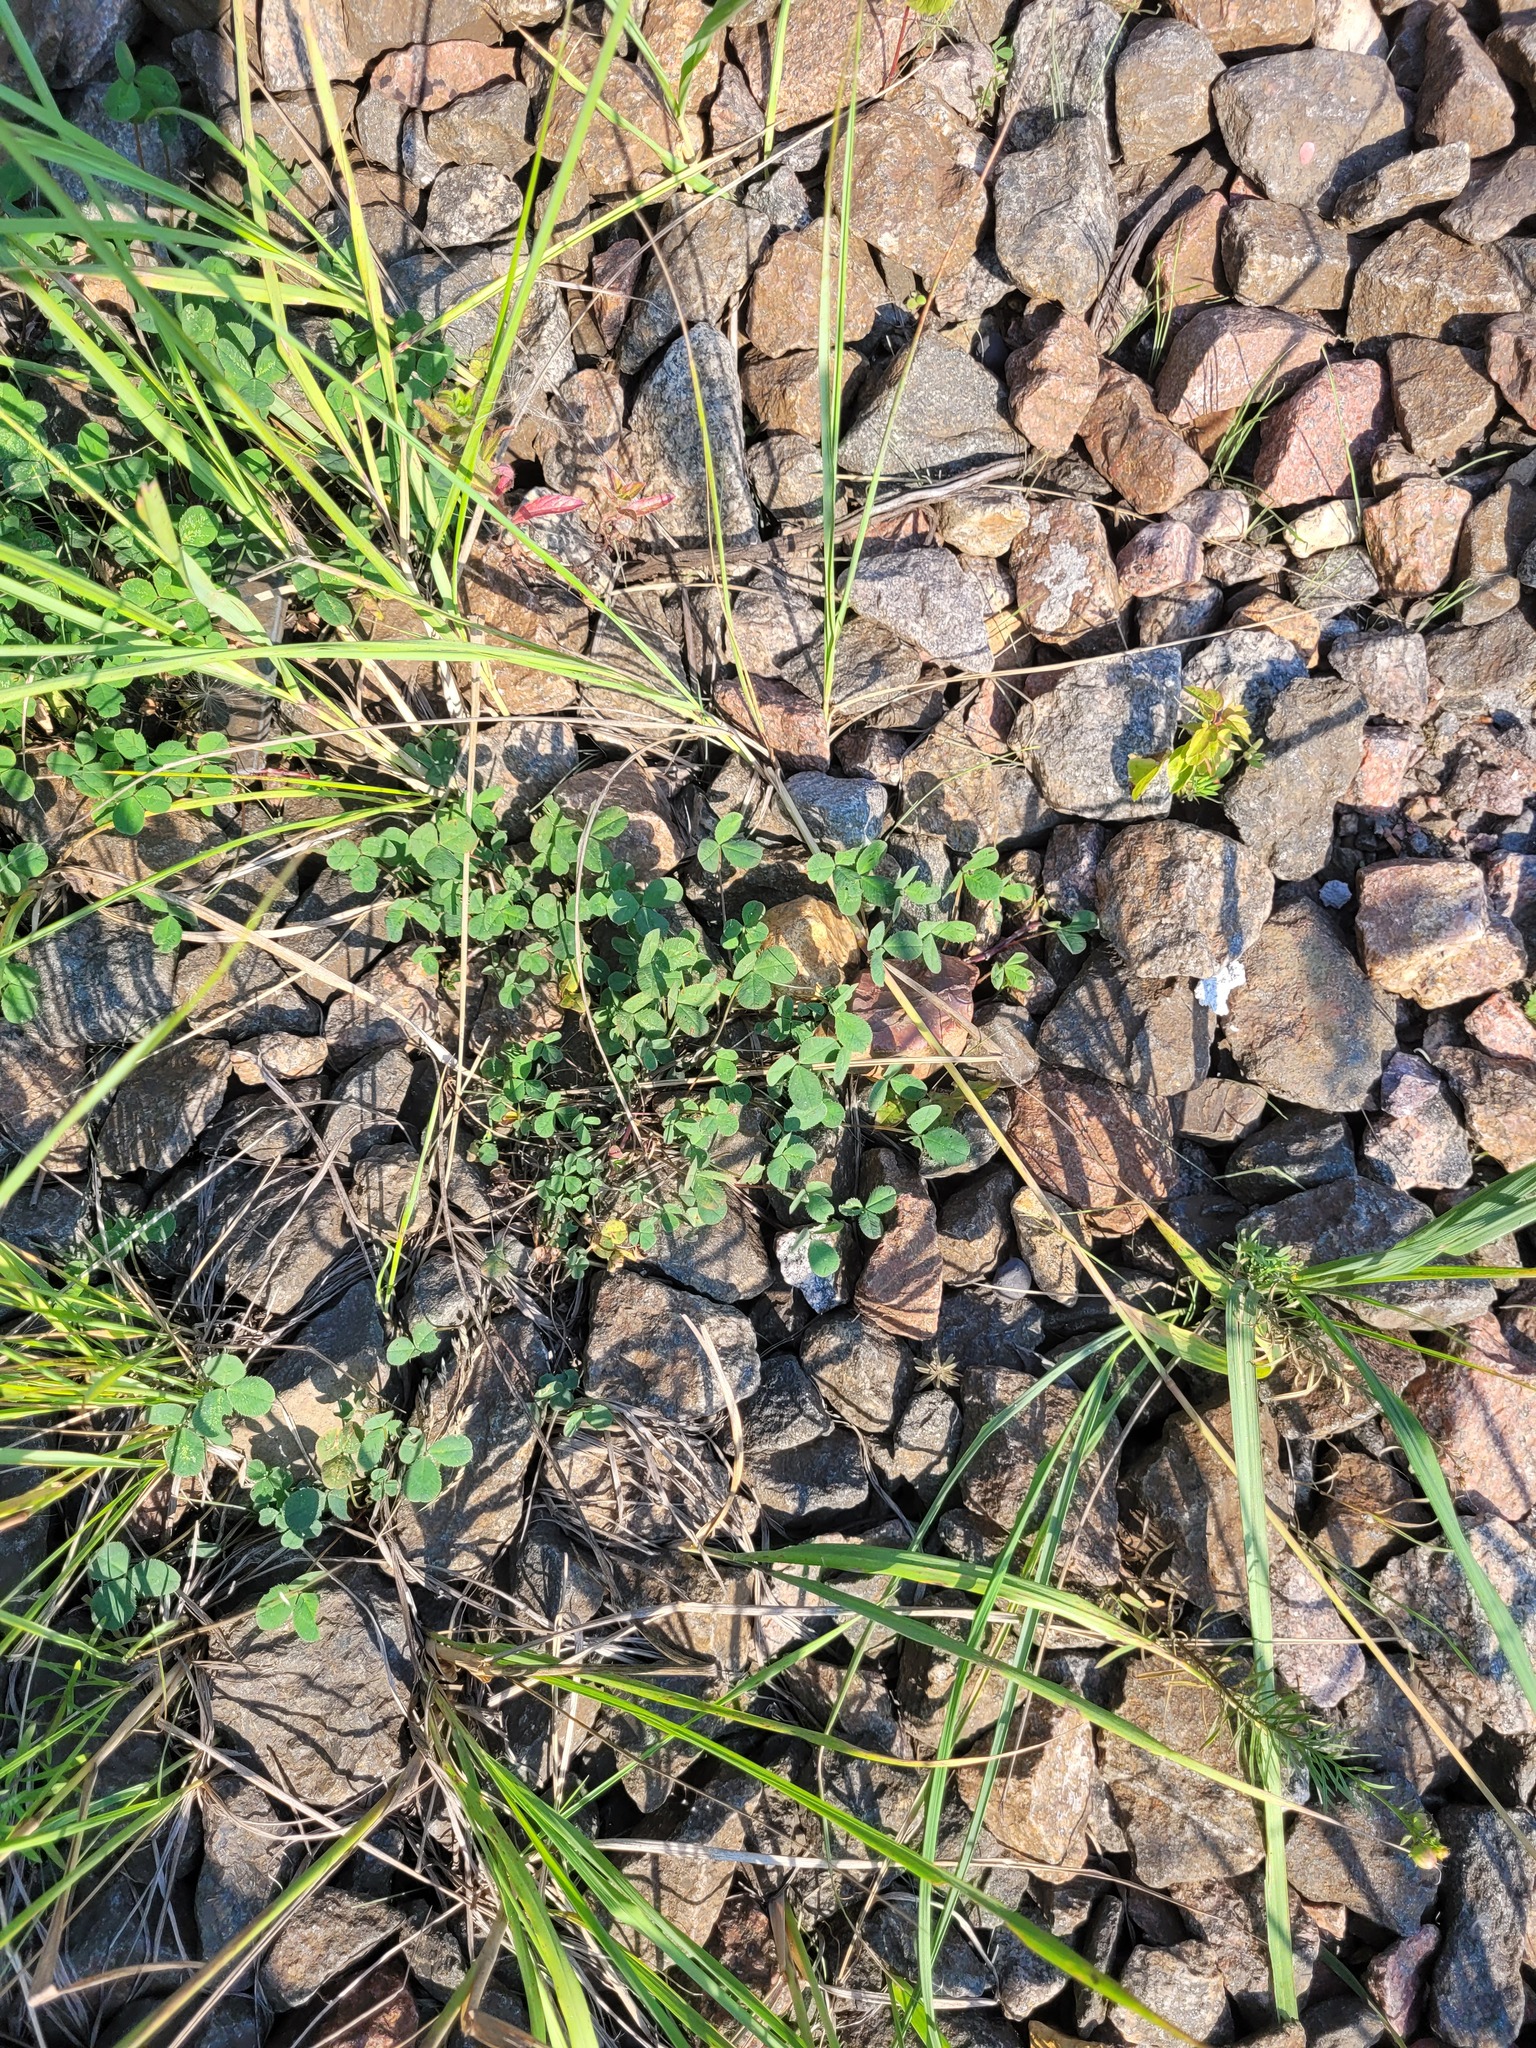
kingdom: Plantae
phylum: Tracheophyta
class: Magnoliopsida
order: Fabales
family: Fabaceae
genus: Trifolium
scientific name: Trifolium repens
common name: White clover
